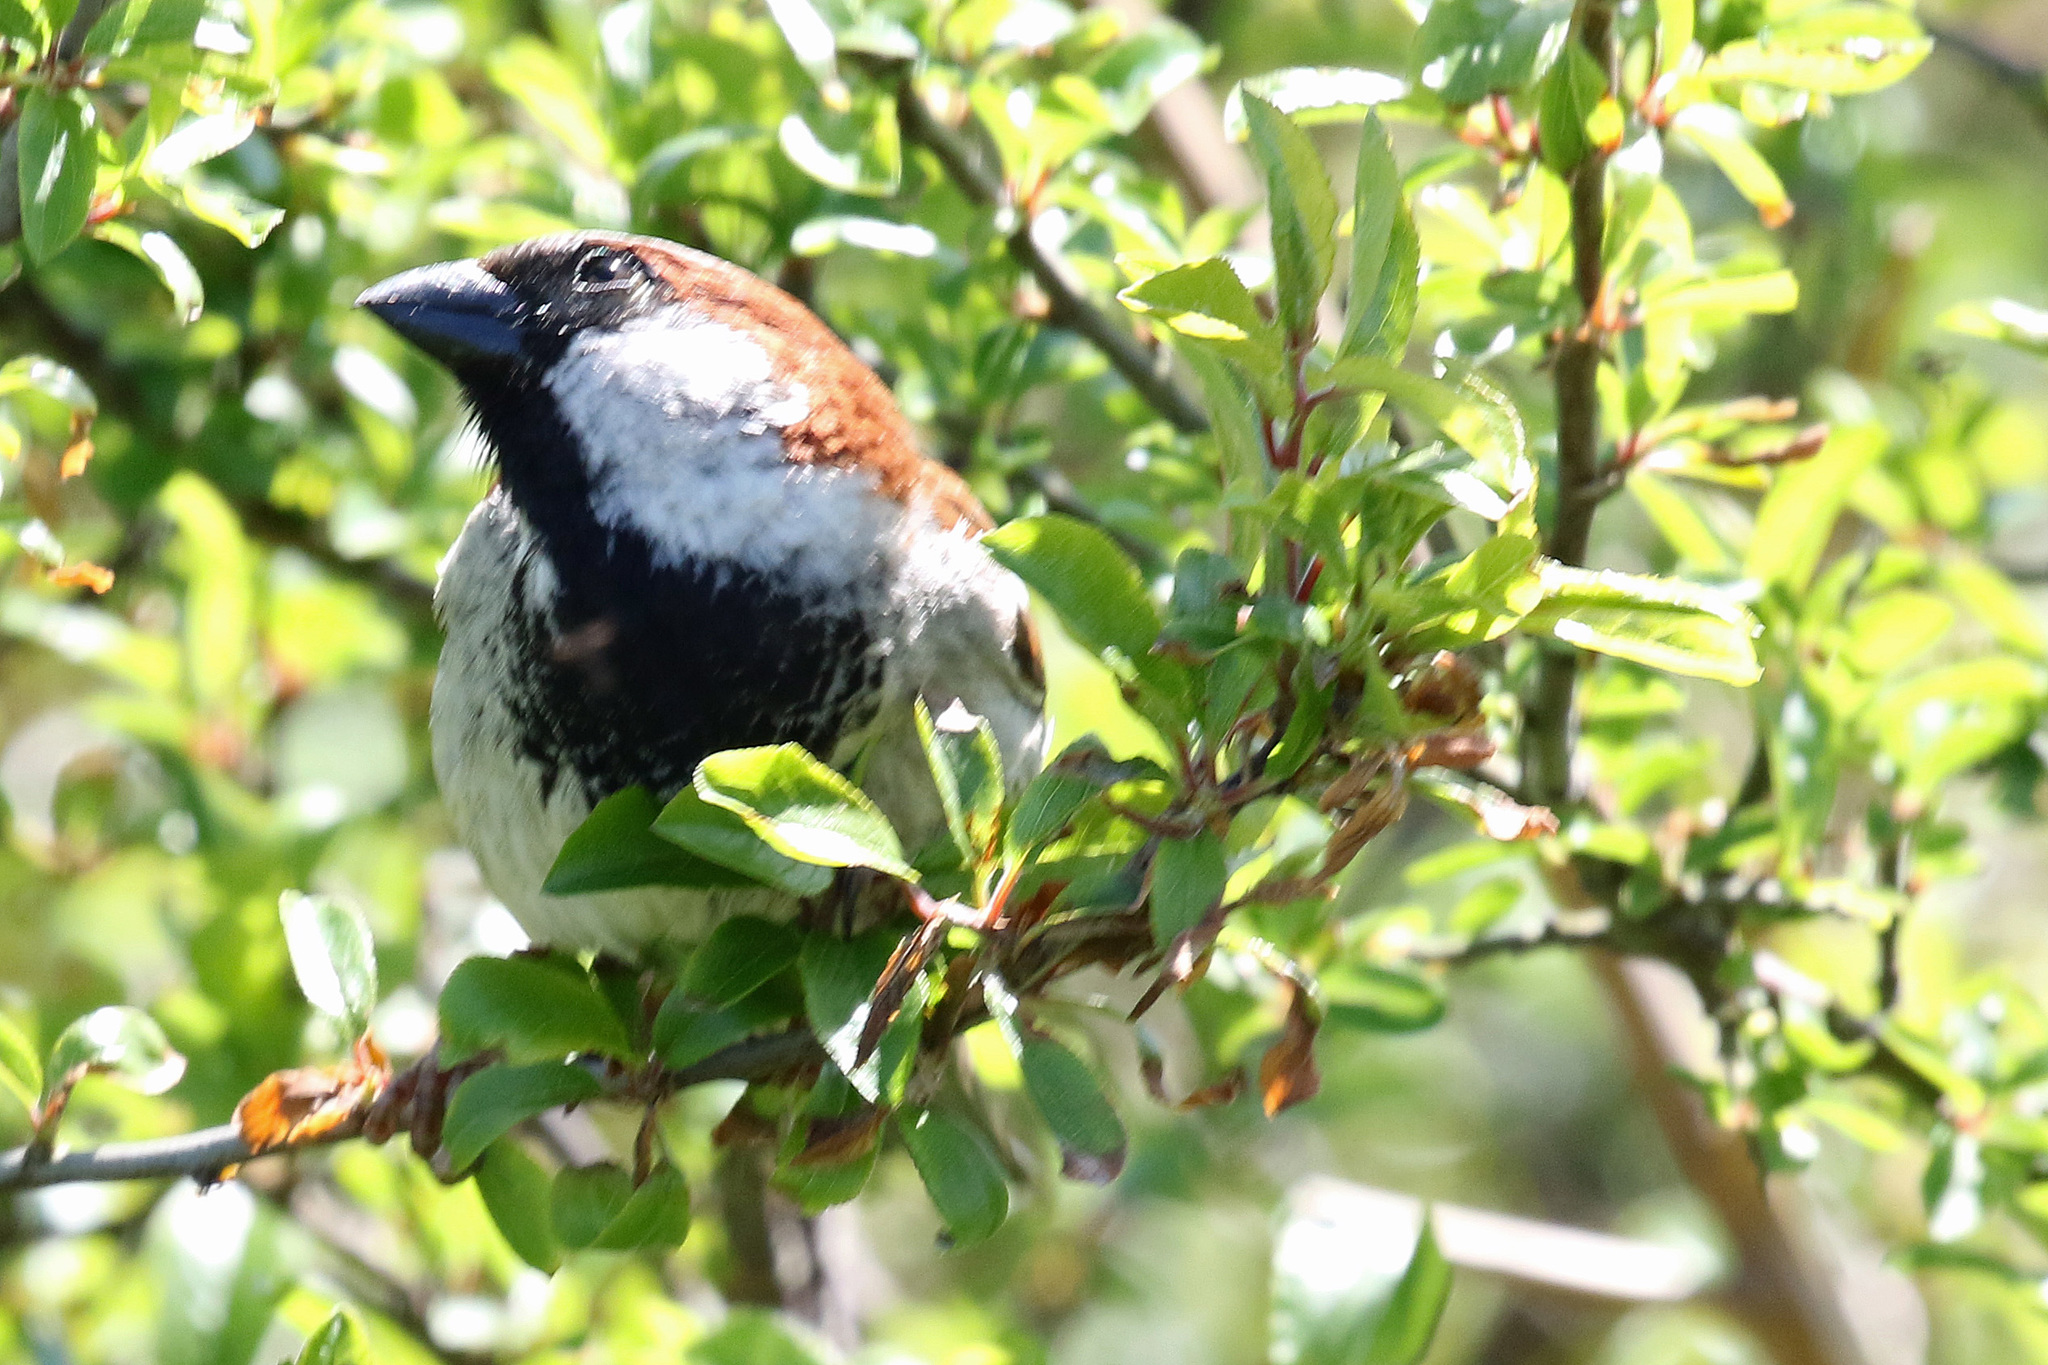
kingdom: Animalia
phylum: Chordata
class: Aves
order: Passeriformes
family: Passeridae
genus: Passer
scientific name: Passer domesticus
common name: House sparrow
